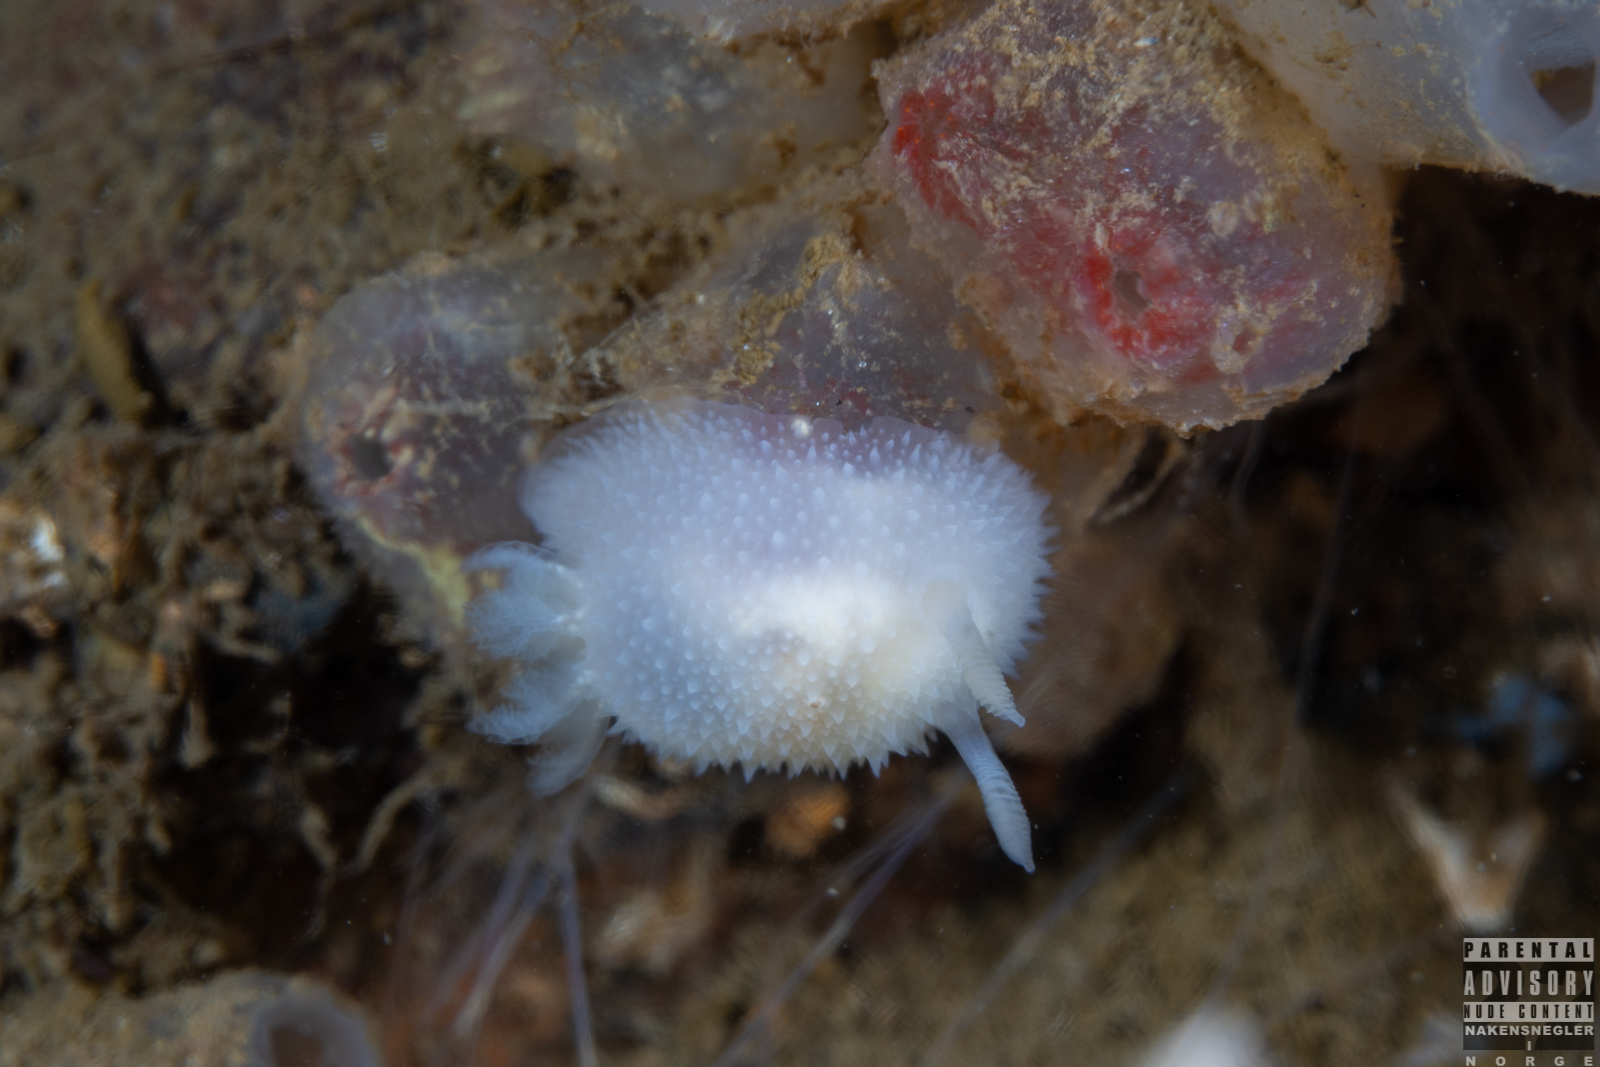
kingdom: Animalia
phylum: Mollusca
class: Gastropoda
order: Nudibranchia
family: Onchidorididae
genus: Acanthodoris
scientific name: Acanthodoris pilosa
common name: Hairy spiny doris
